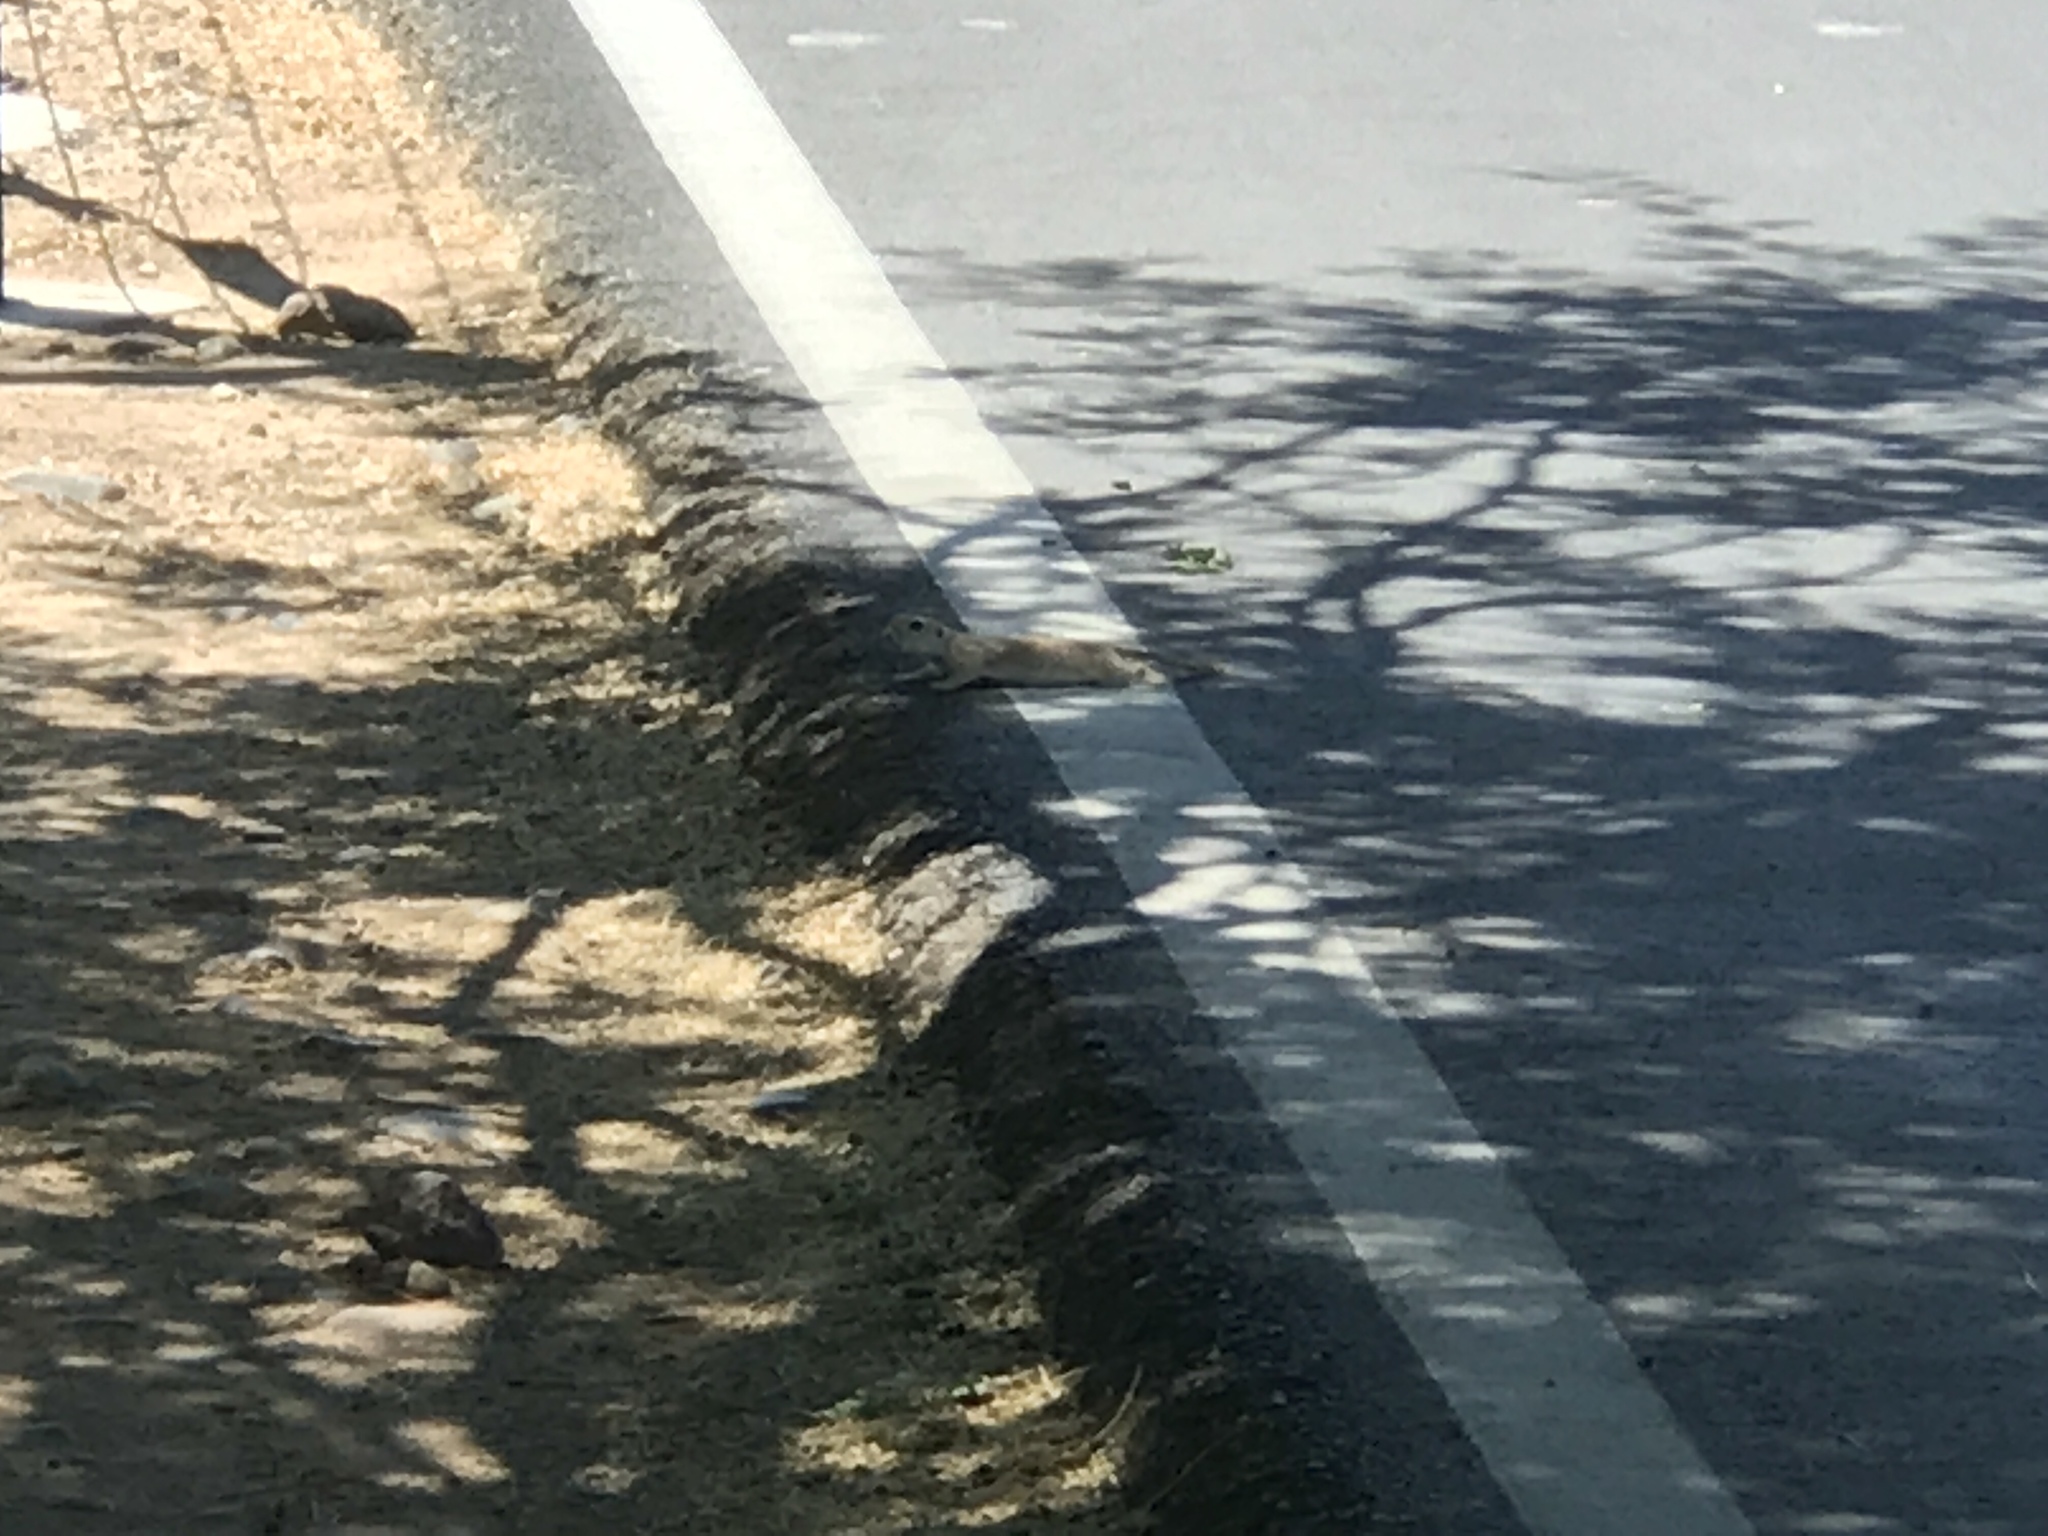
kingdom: Animalia
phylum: Chordata
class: Mammalia
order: Rodentia
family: Sciuridae
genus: Xerospermophilus
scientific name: Xerospermophilus tereticaudus
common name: Round-tailed ground squirrel
